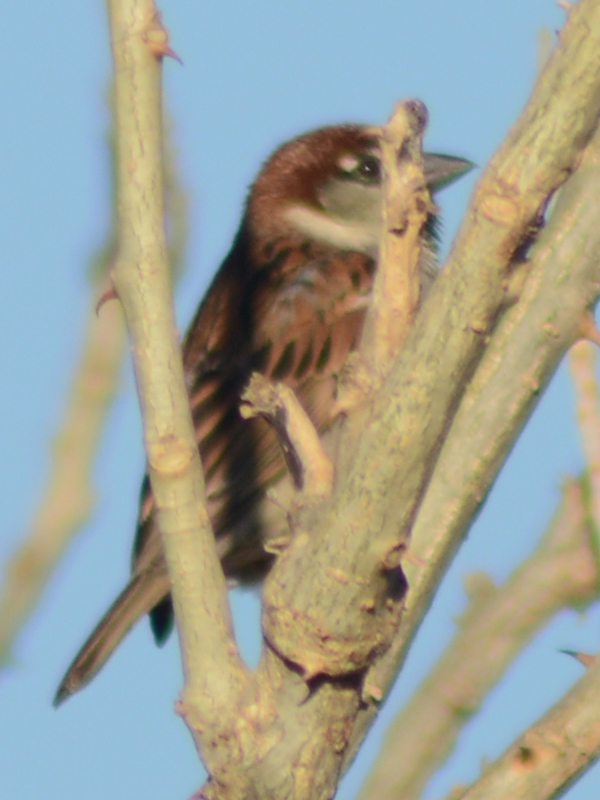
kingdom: Animalia
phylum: Chordata
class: Aves
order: Passeriformes
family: Passeridae
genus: Passer
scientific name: Passer domesticus
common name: House sparrow
